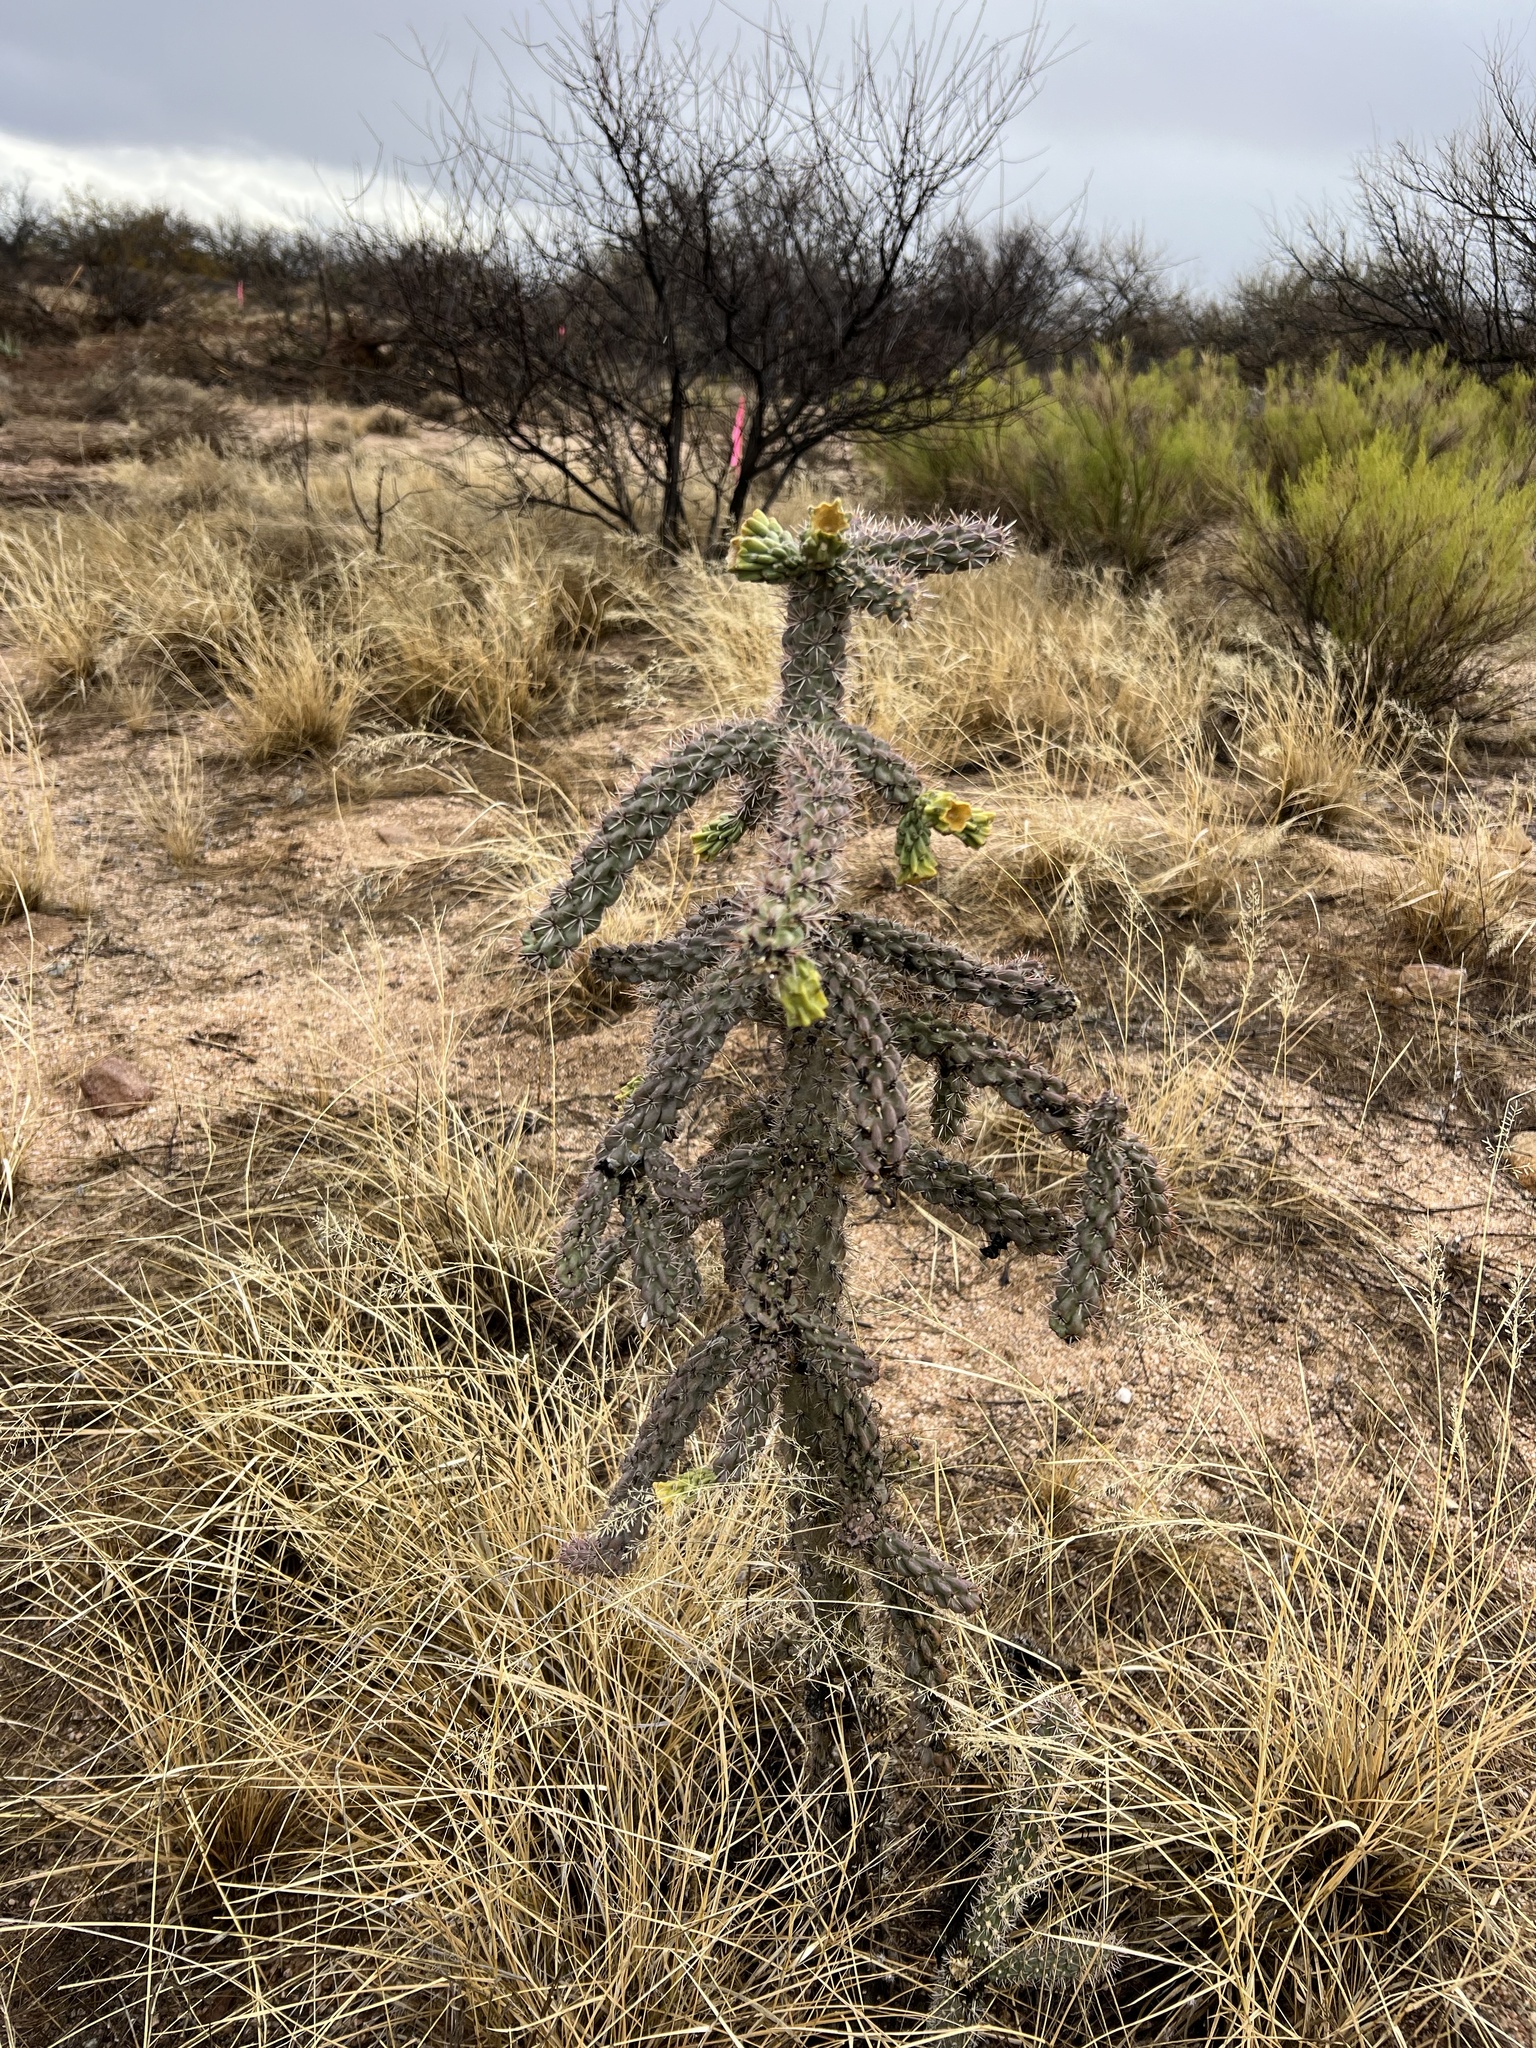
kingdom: Plantae
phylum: Tracheophyta
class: Magnoliopsida
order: Caryophyllales
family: Cactaceae
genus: Cylindropuntia
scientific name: Cylindropuntia imbricata
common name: Candelabrum cactus
